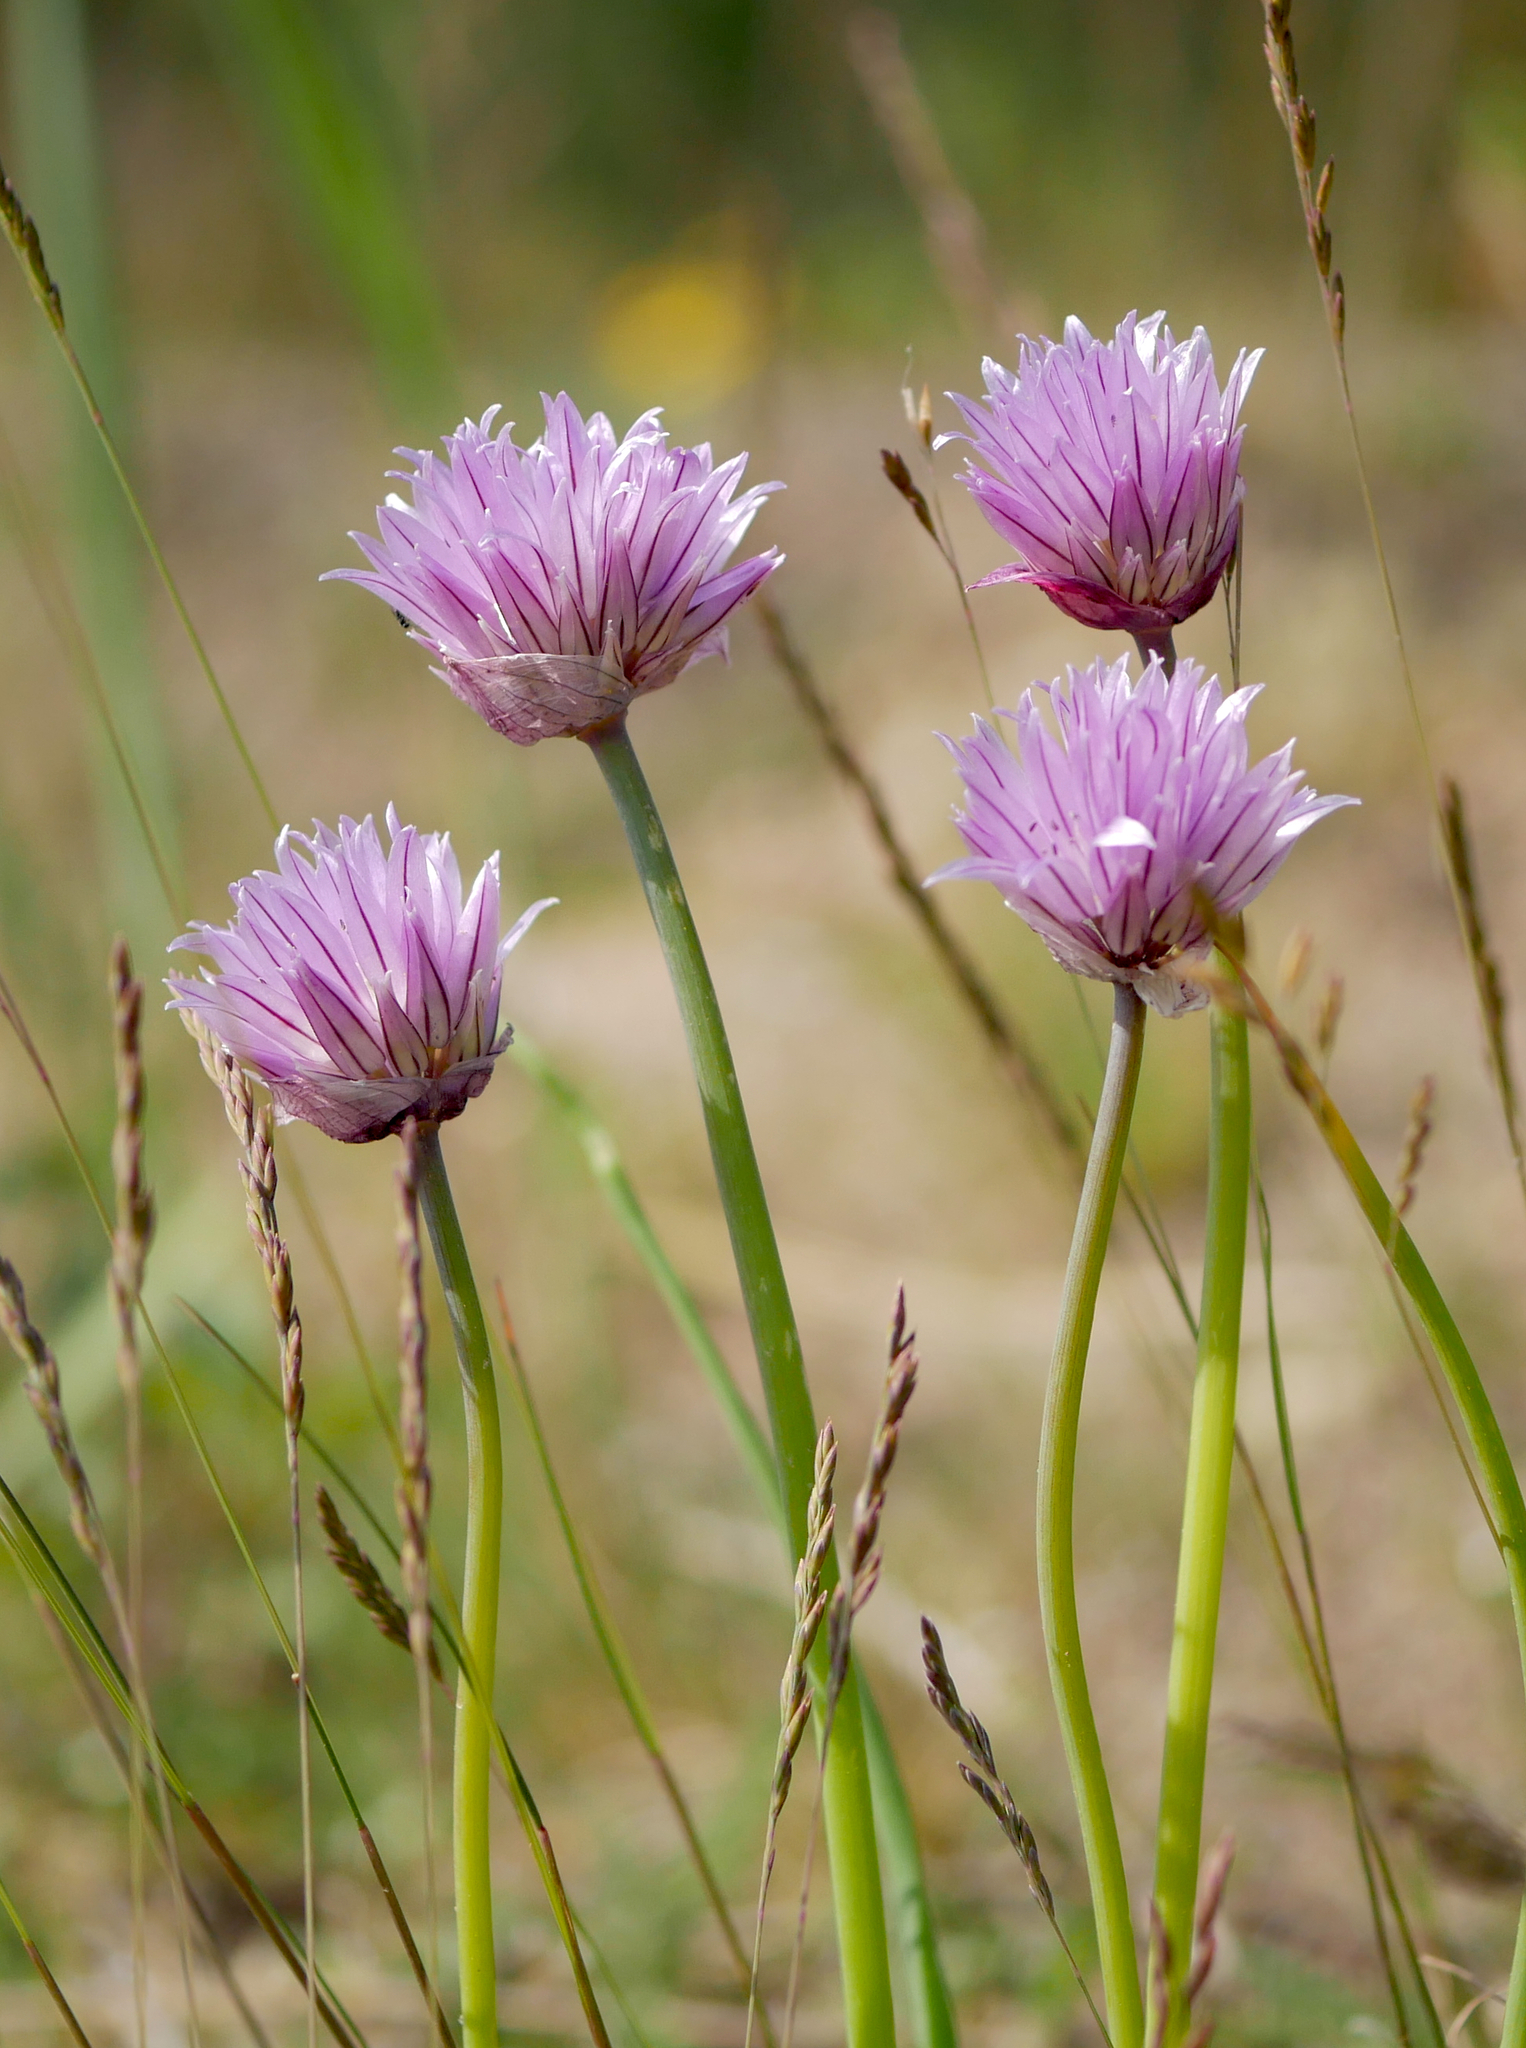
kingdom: Plantae
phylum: Tracheophyta
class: Liliopsida
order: Asparagales
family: Amaryllidaceae
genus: Allium
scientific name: Allium schoenoprasum
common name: Chives
